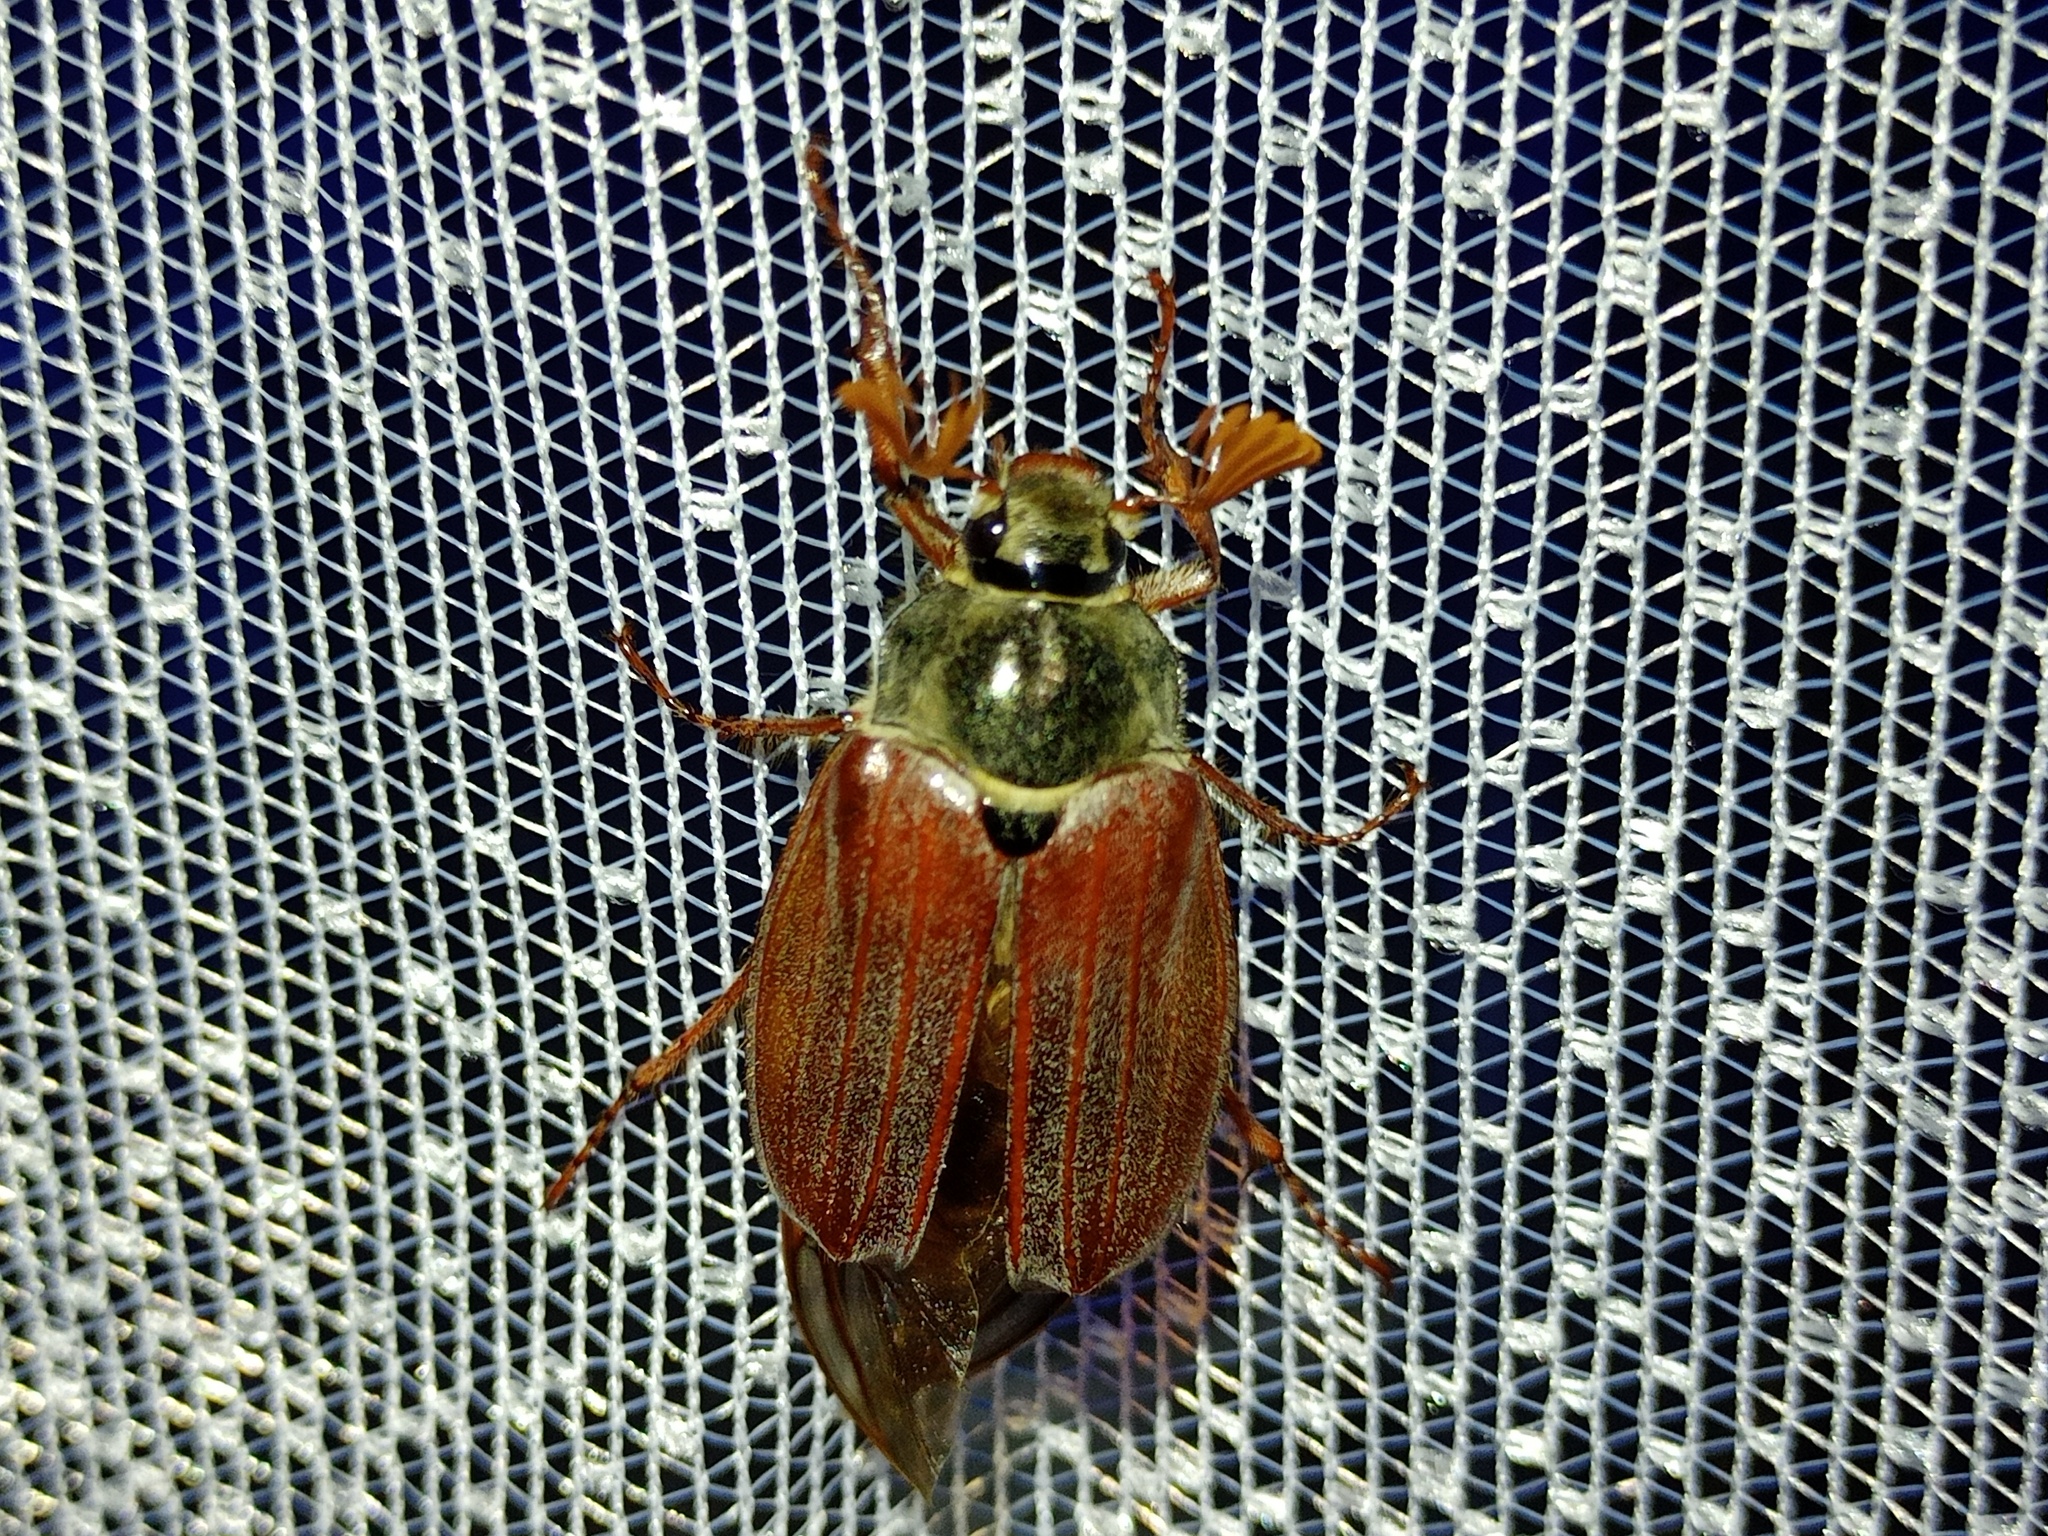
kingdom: Animalia
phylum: Arthropoda
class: Insecta
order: Coleoptera
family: Scarabaeidae
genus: Melolontha
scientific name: Melolontha melolontha
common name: Cockchafer maybeetle
